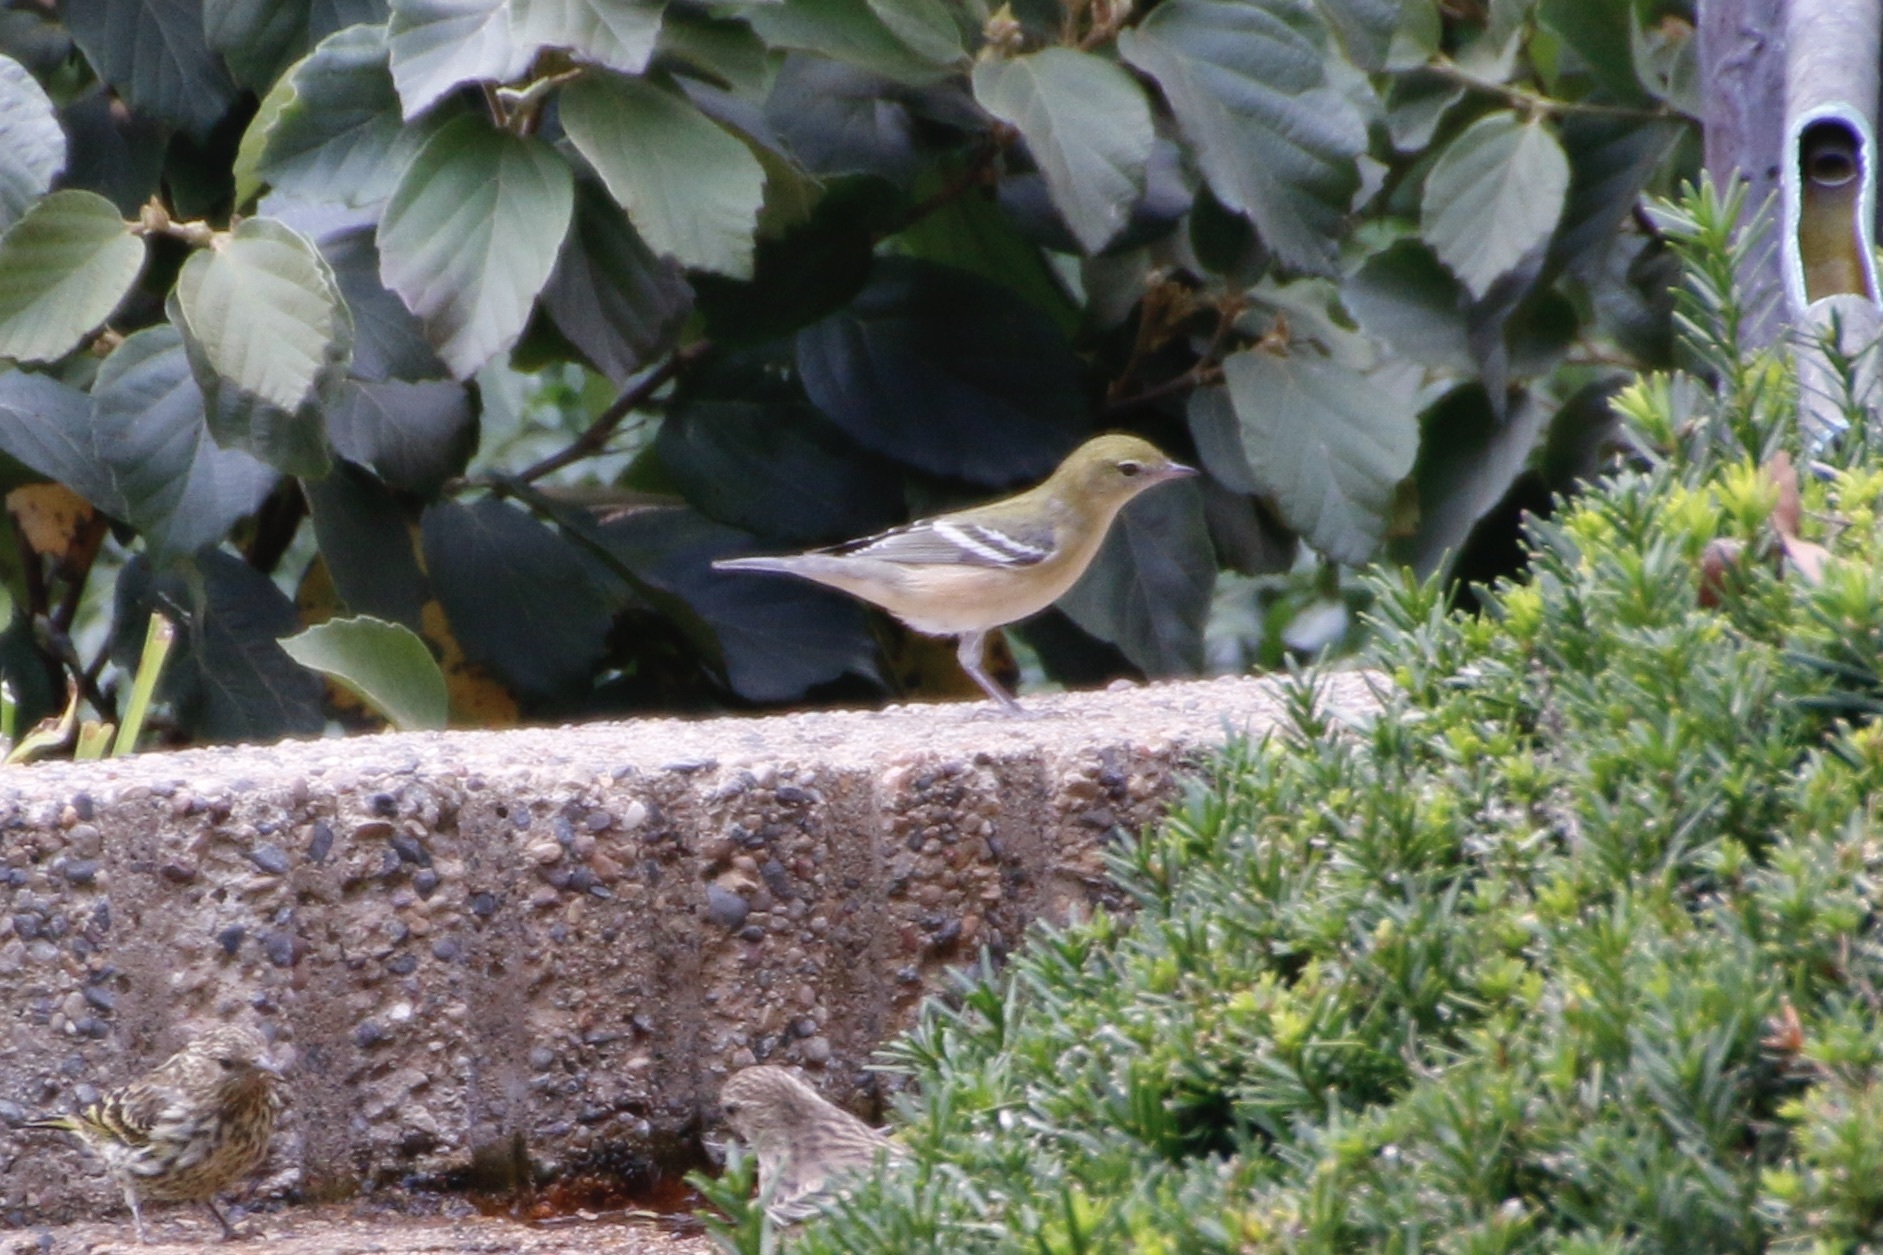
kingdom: Animalia
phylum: Chordata
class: Aves
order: Passeriformes
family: Parulidae
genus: Setophaga
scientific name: Setophaga castanea
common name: Bay-breasted warbler
